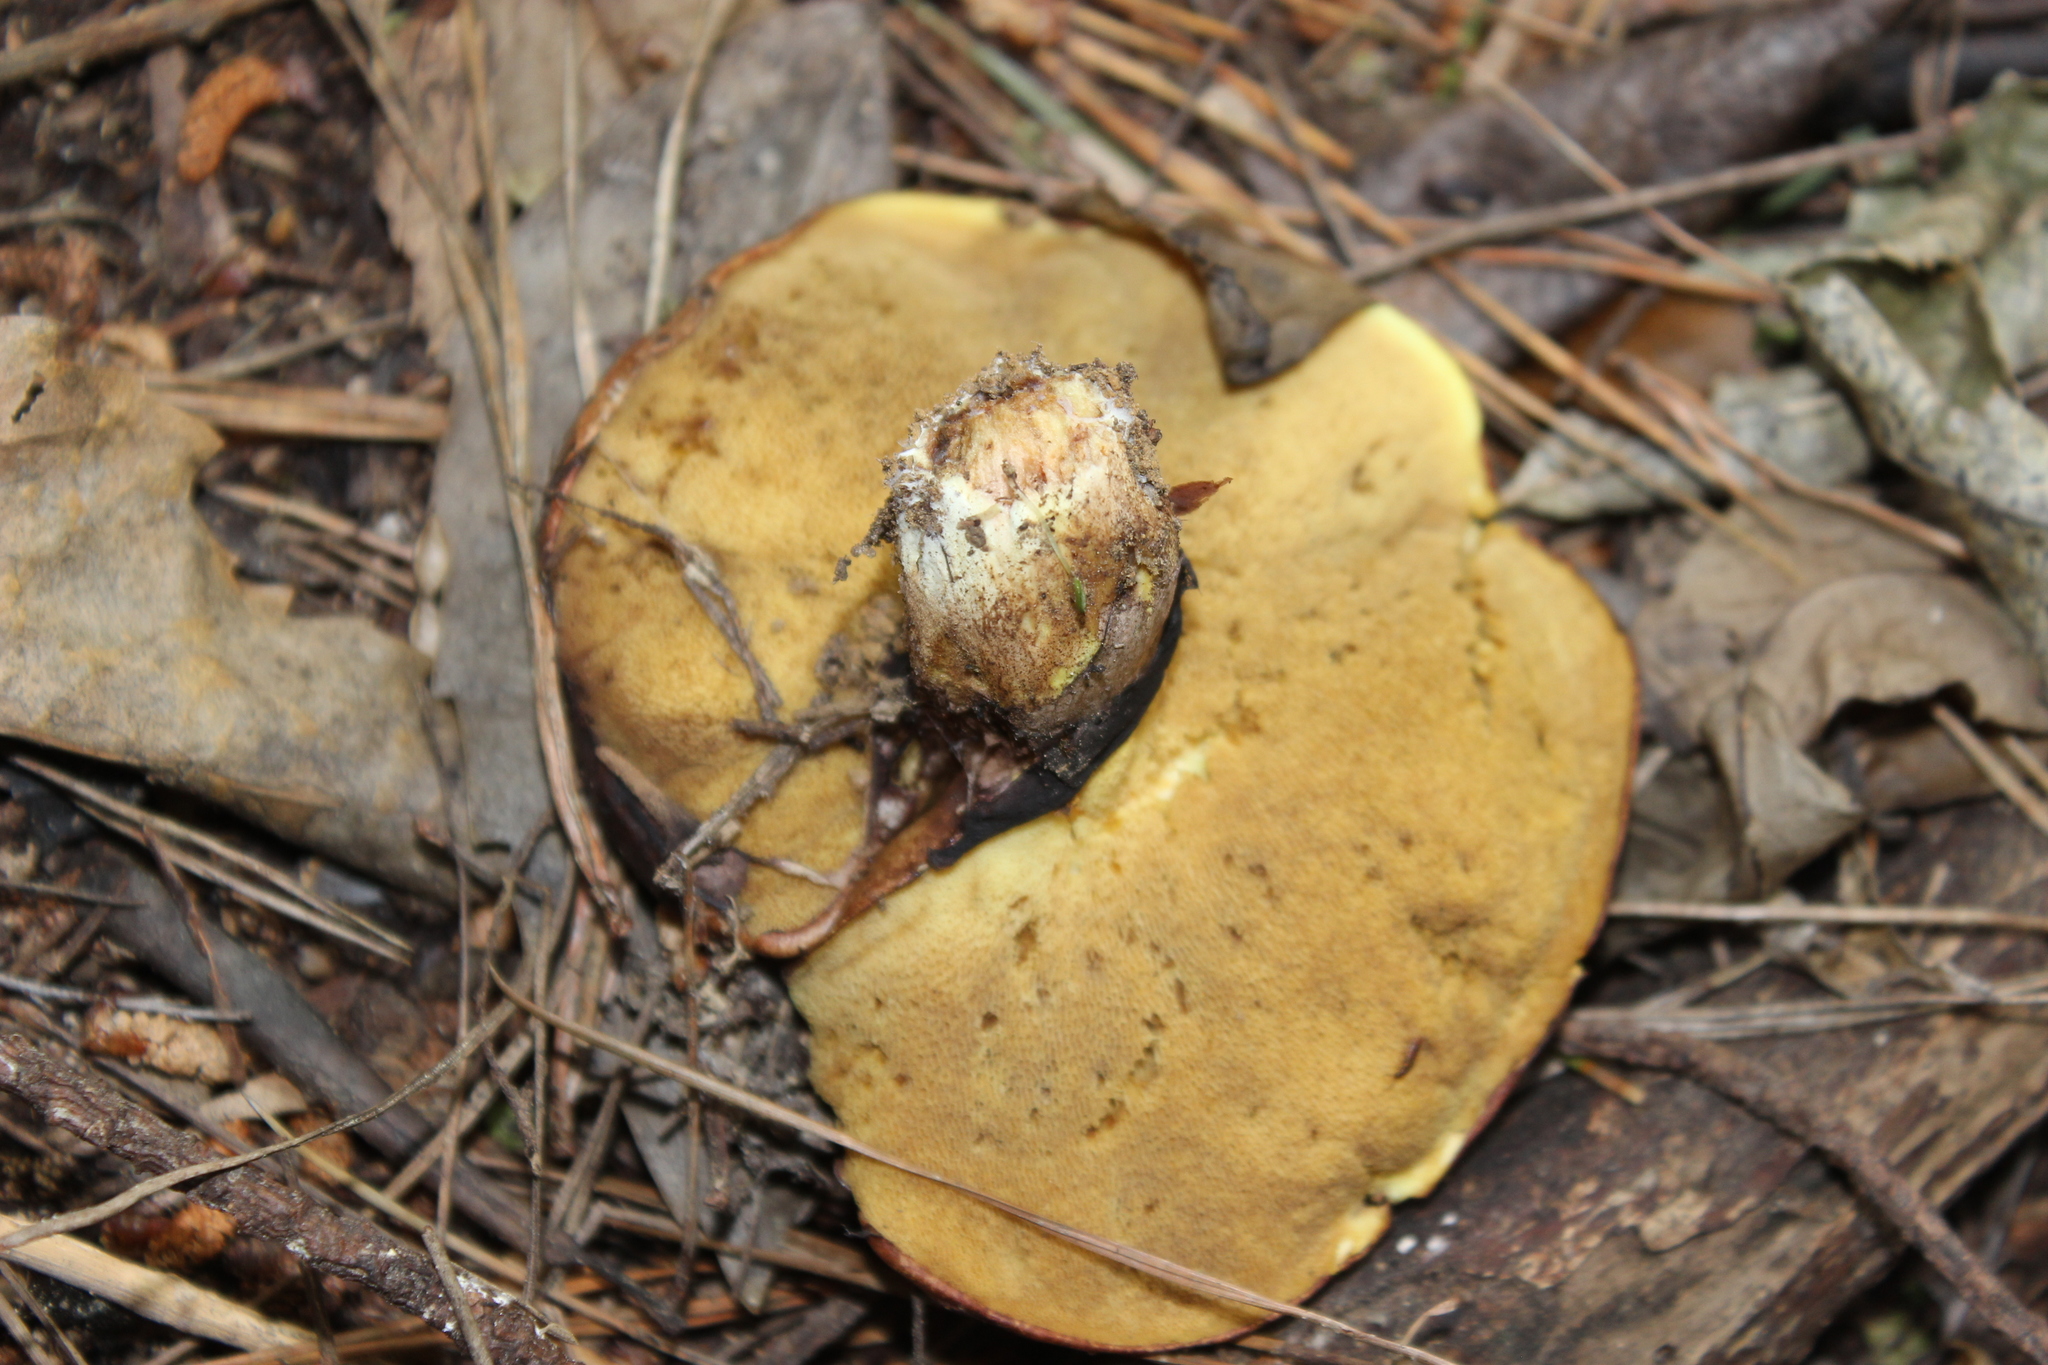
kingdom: Fungi
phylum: Basidiomycota
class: Agaricomycetes
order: Boletales
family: Suillaceae
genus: Suillus
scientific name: Suillus luteus
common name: Slippery jack
